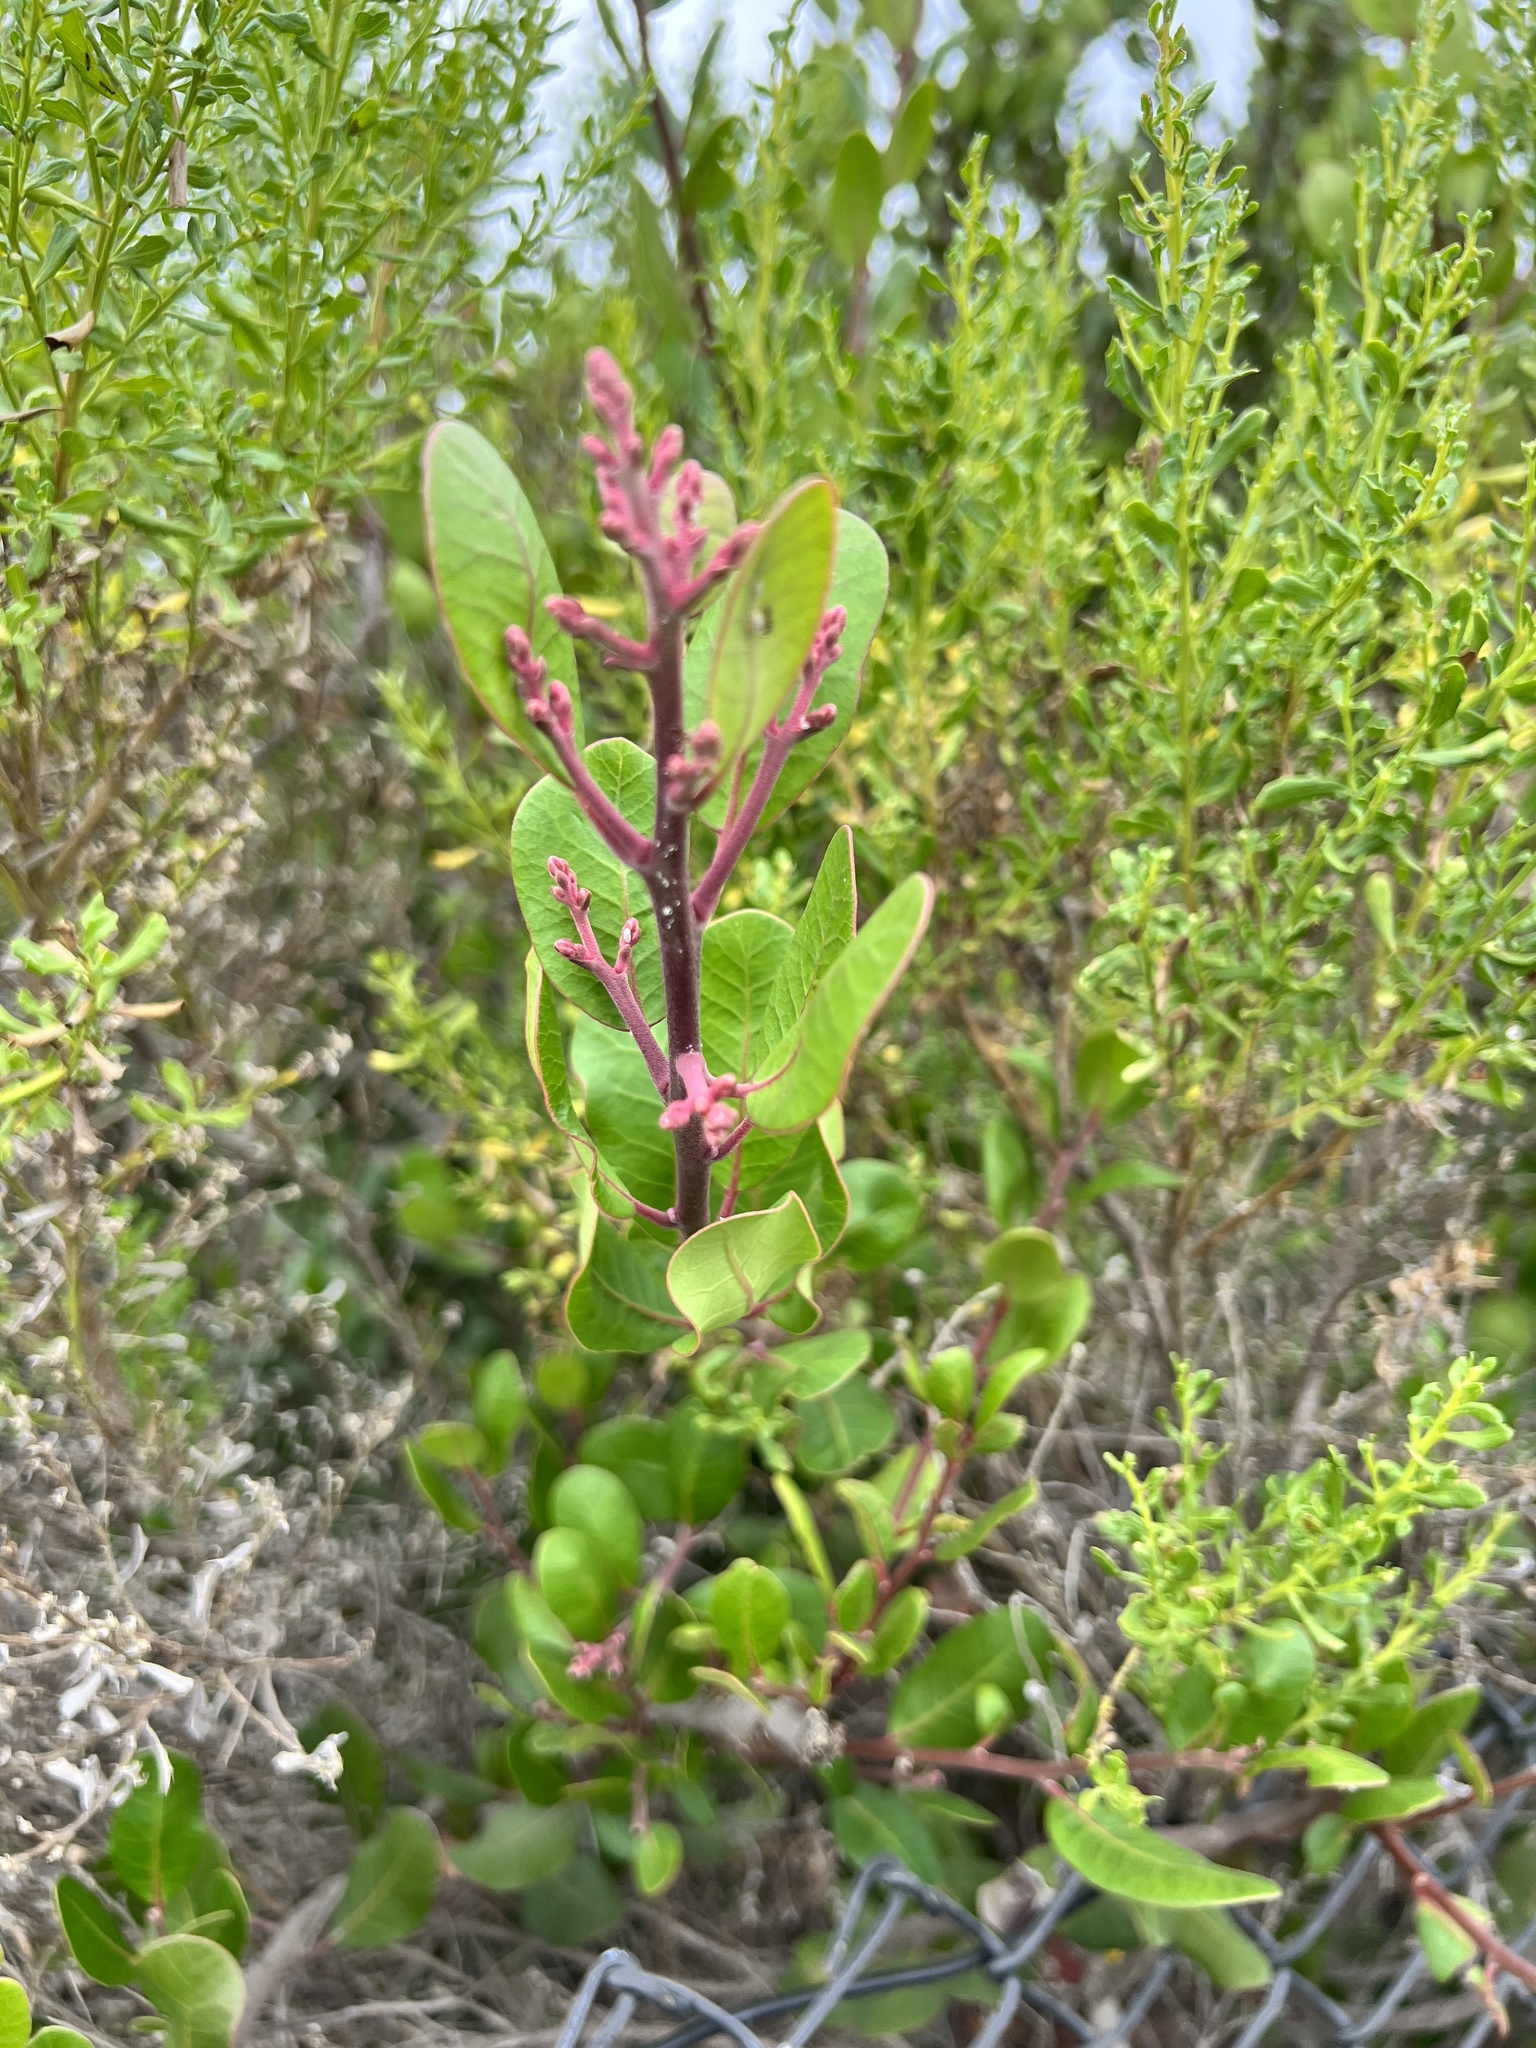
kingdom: Plantae
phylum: Tracheophyta
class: Magnoliopsida
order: Sapindales
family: Anacardiaceae
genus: Rhus
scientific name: Rhus integrifolia
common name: Lemonade sumac
